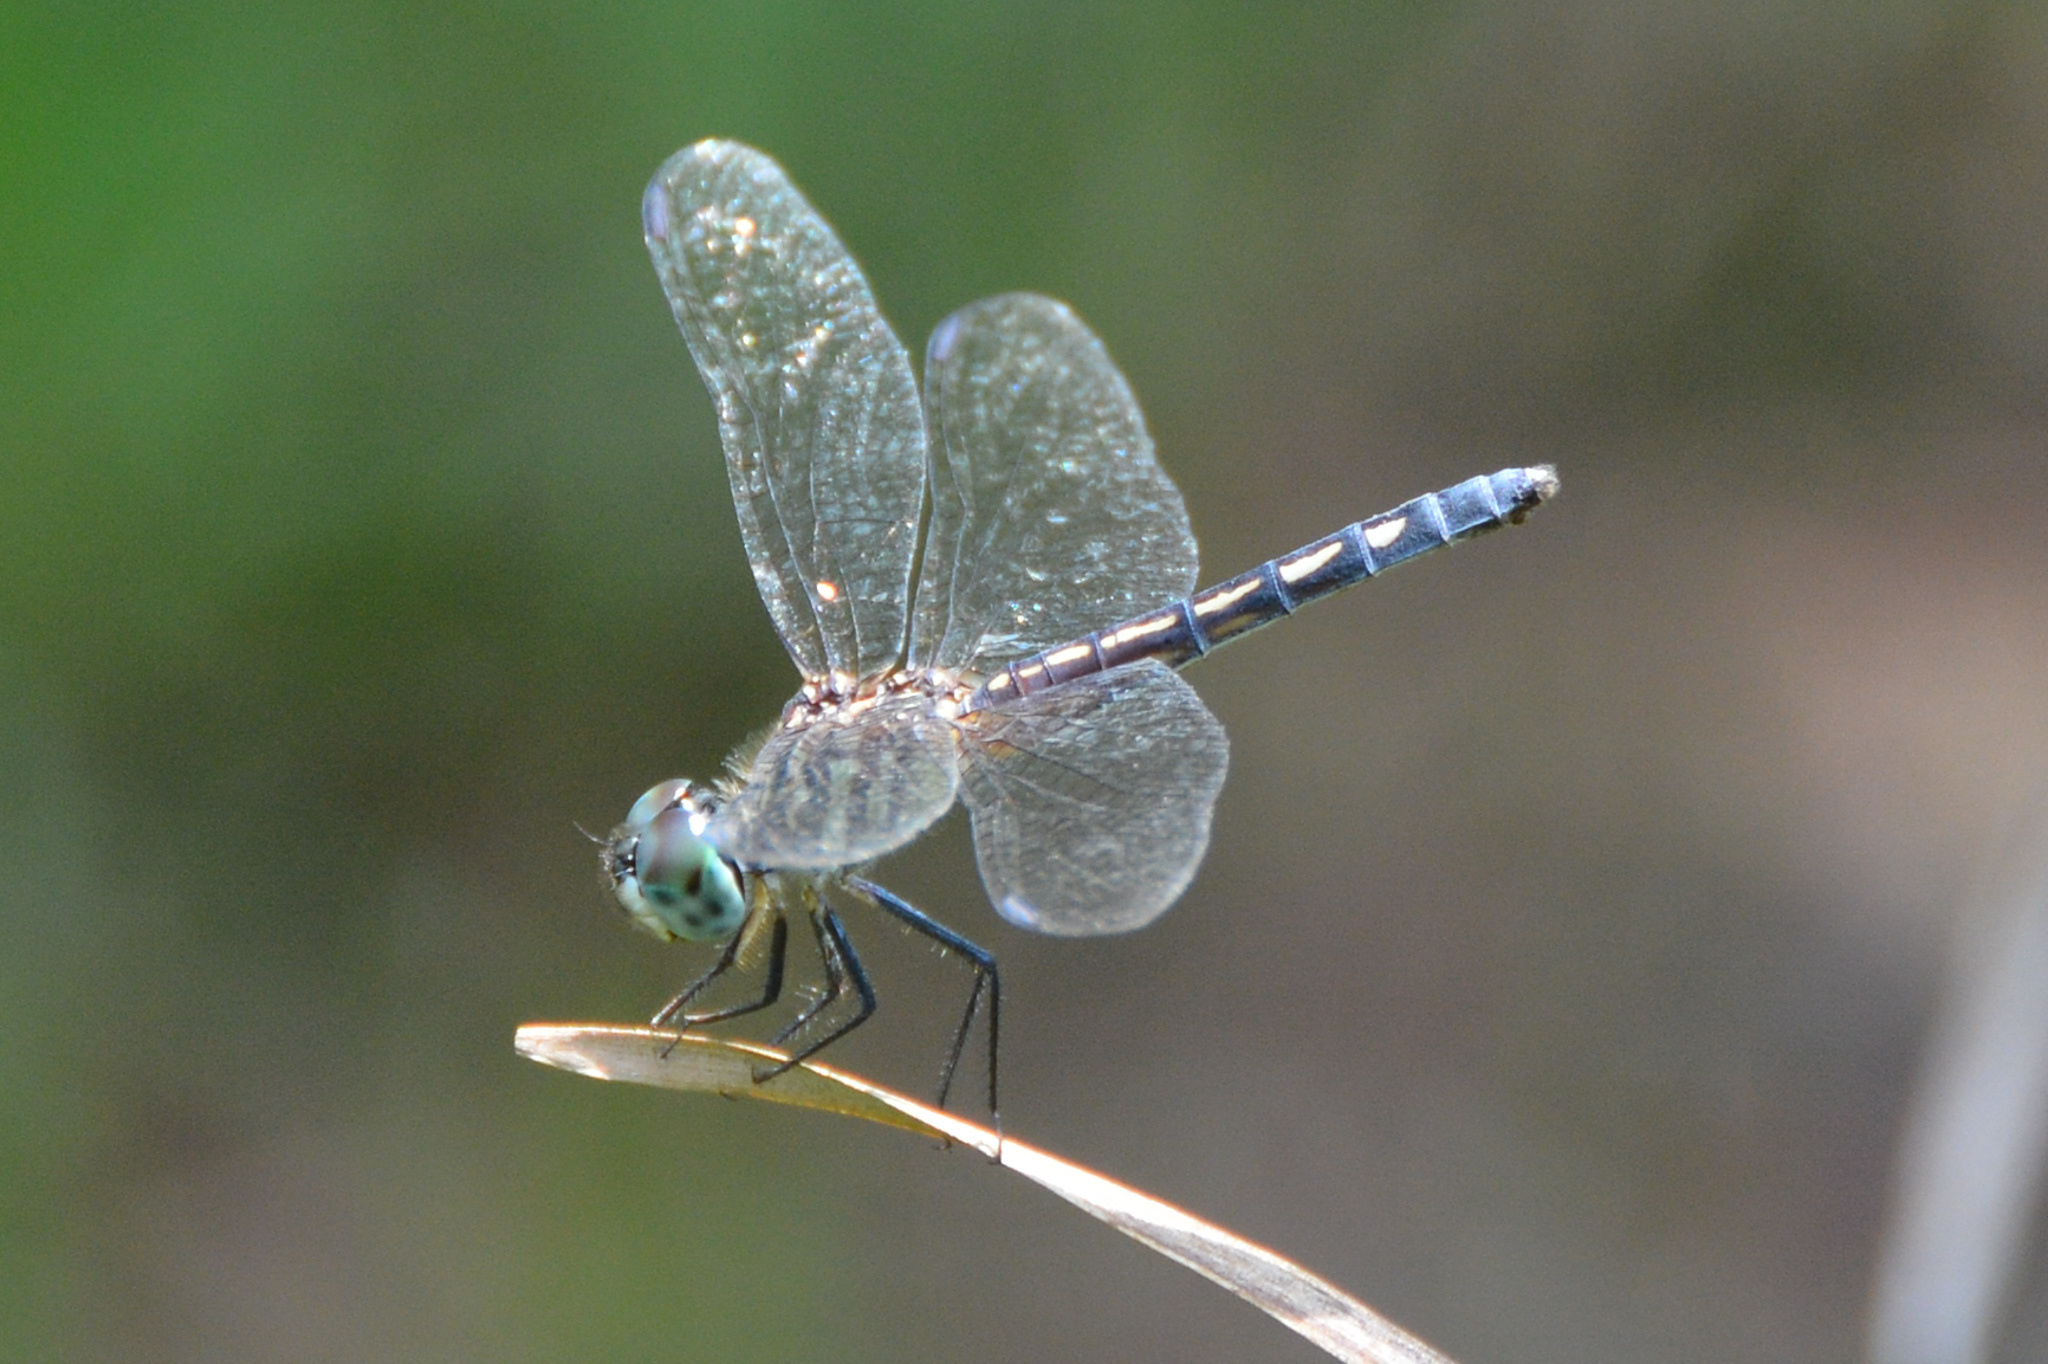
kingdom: Animalia
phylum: Arthropoda
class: Insecta
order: Odonata
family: Libellulidae
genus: Pachydiplax
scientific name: Pachydiplax longipennis
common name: Blue dasher
